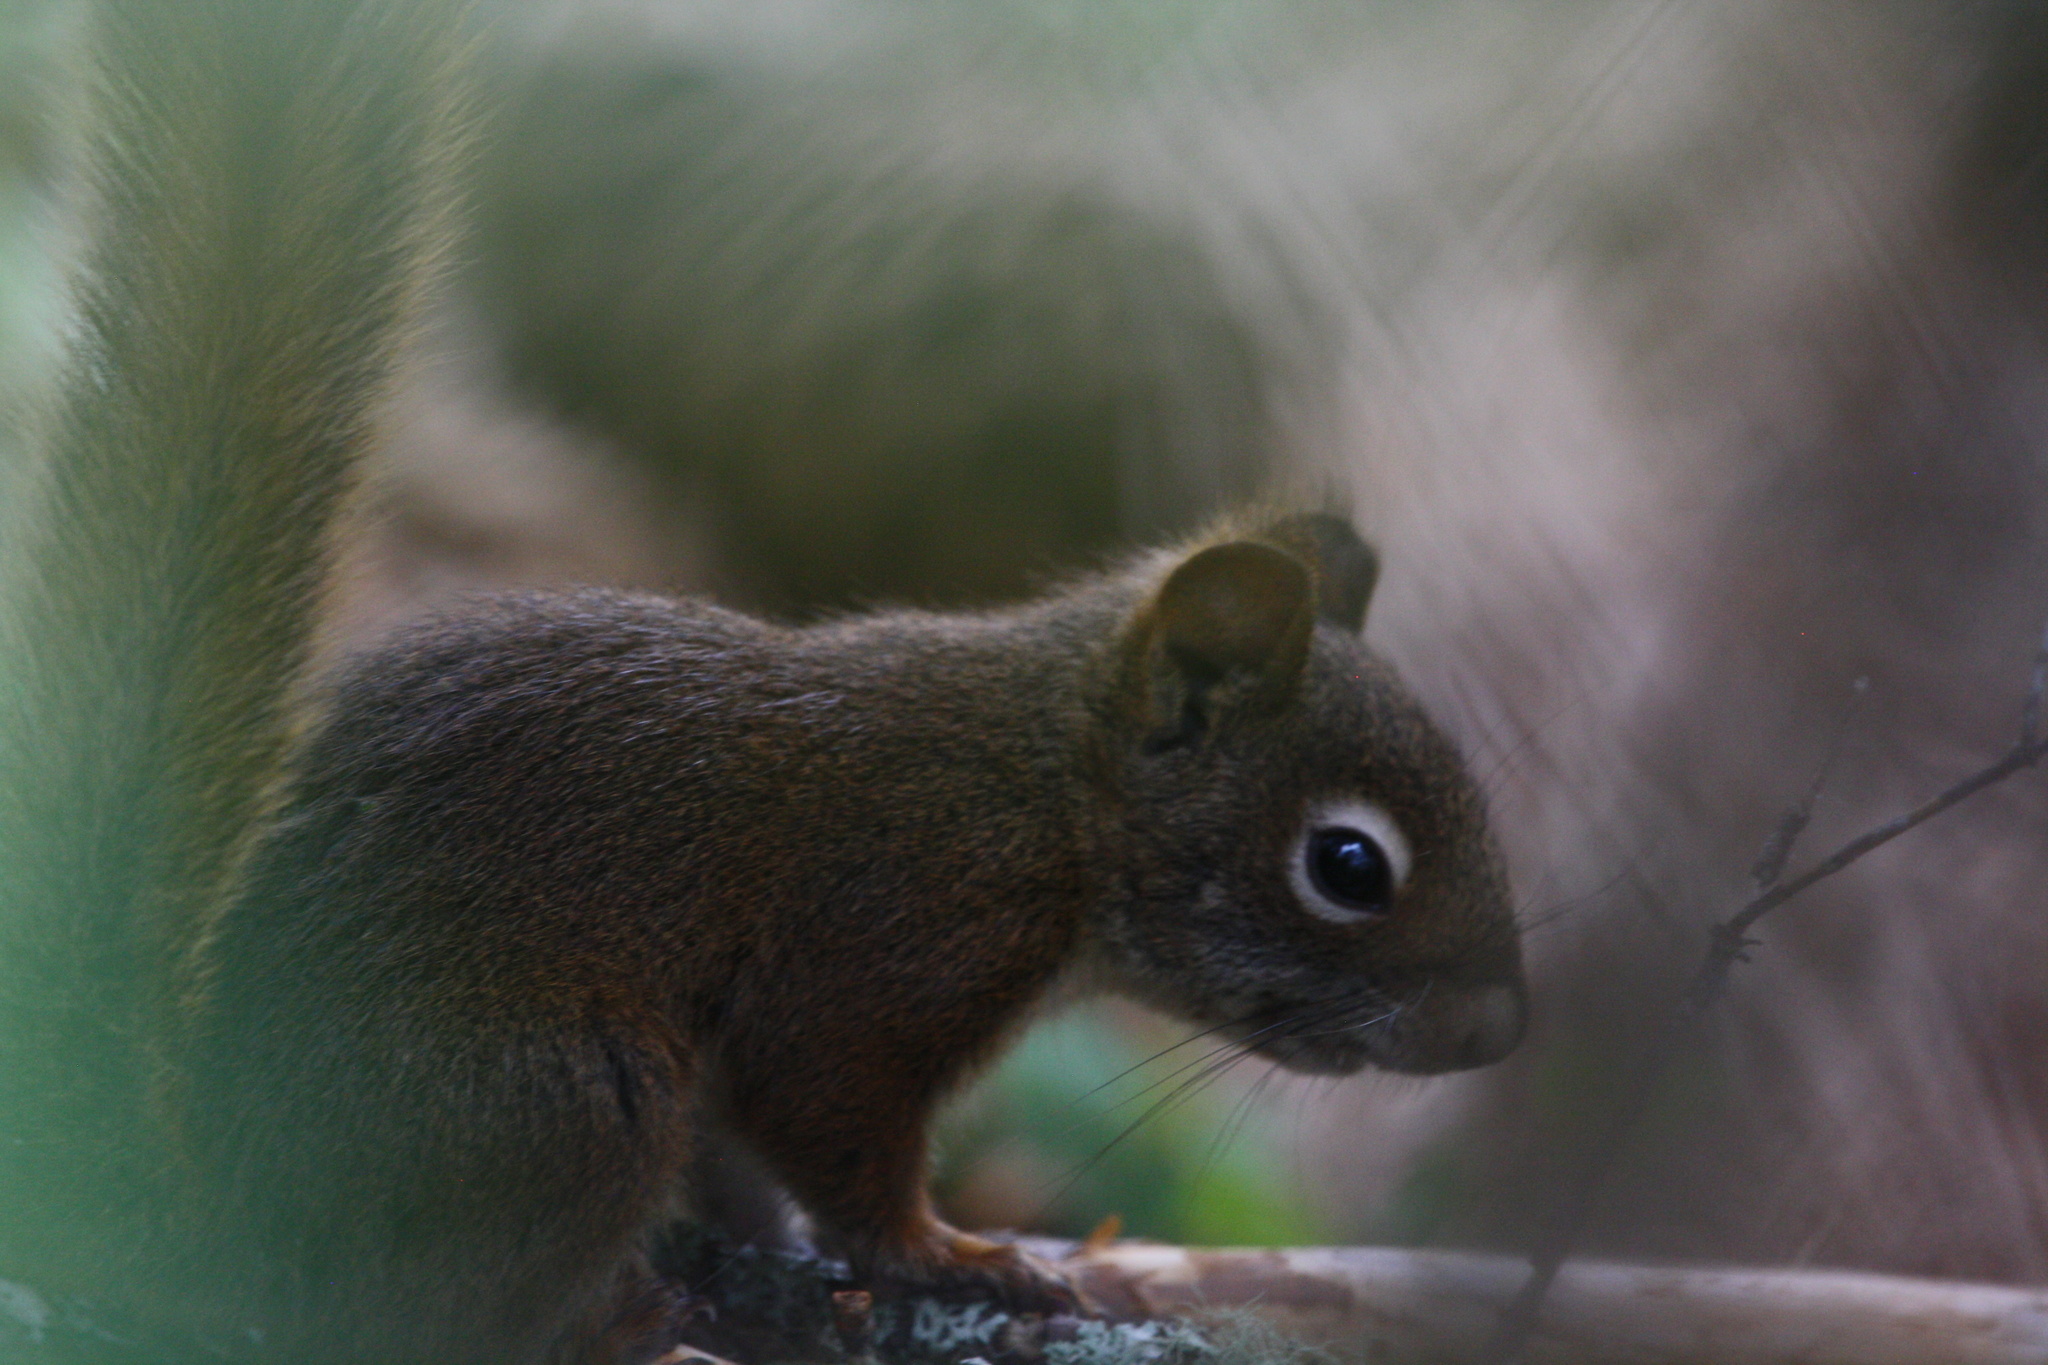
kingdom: Animalia
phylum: Chordata
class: Mammalia
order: Rodentia
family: Sciuridae
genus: Tamiasciurus
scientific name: Tamiasciurus hudsonicus
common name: Red squirrel
